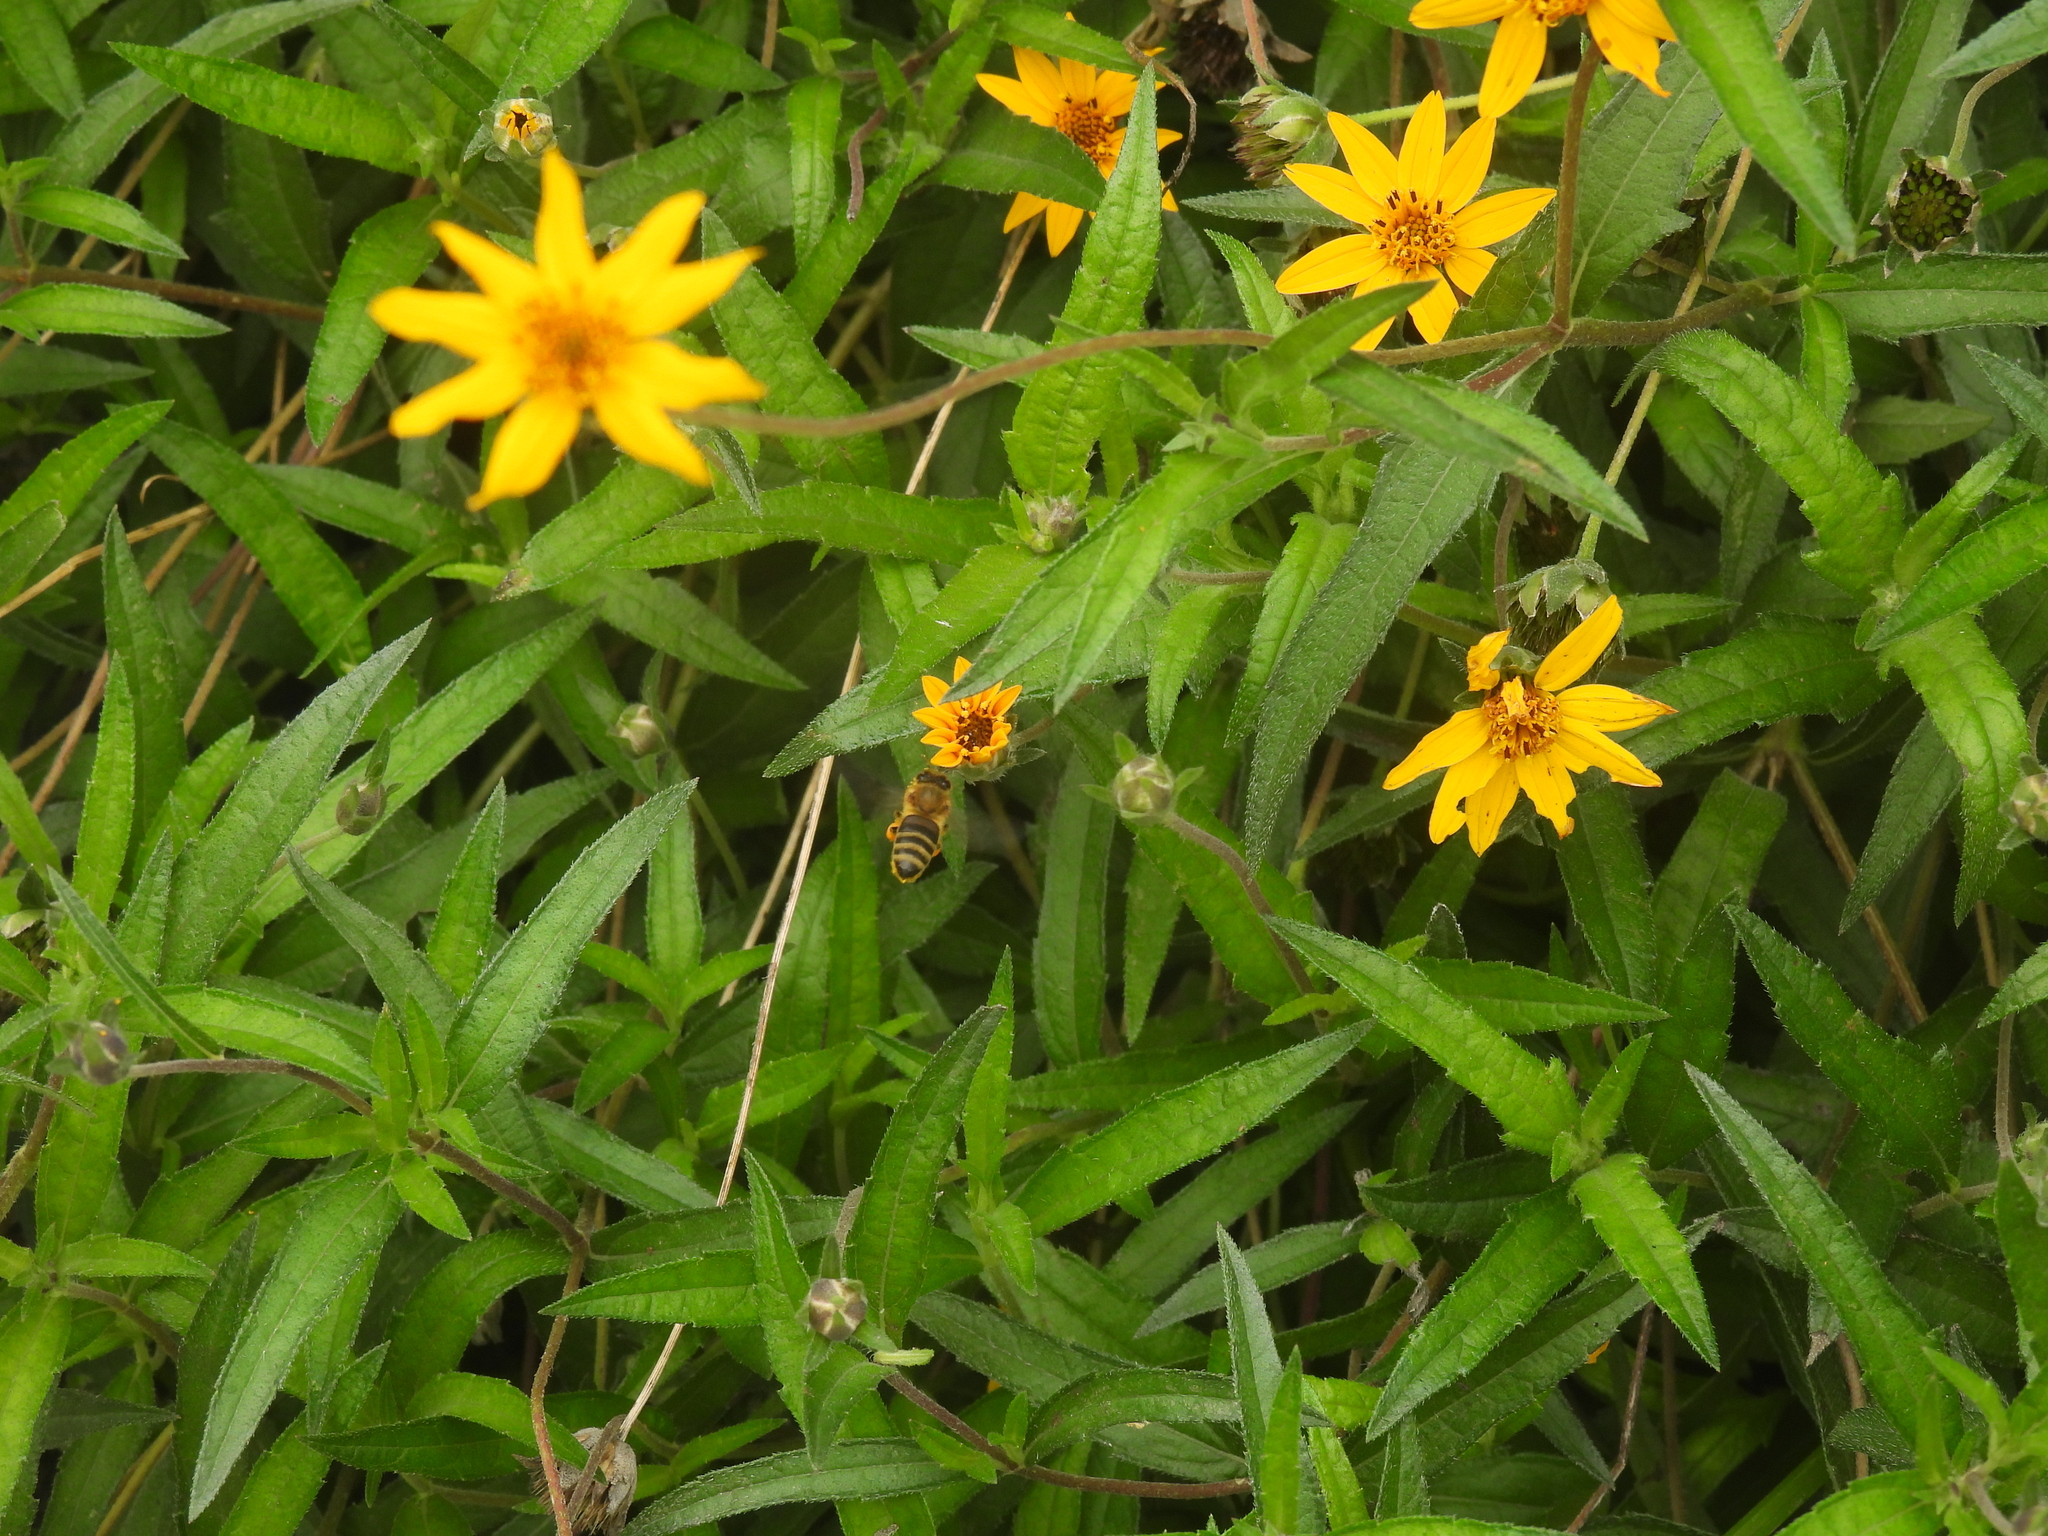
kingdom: Animalia
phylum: Arthropoda
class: Insecta
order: Hymenoptera
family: Apidae
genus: Apis
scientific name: Apis mellifera
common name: Honey bee
